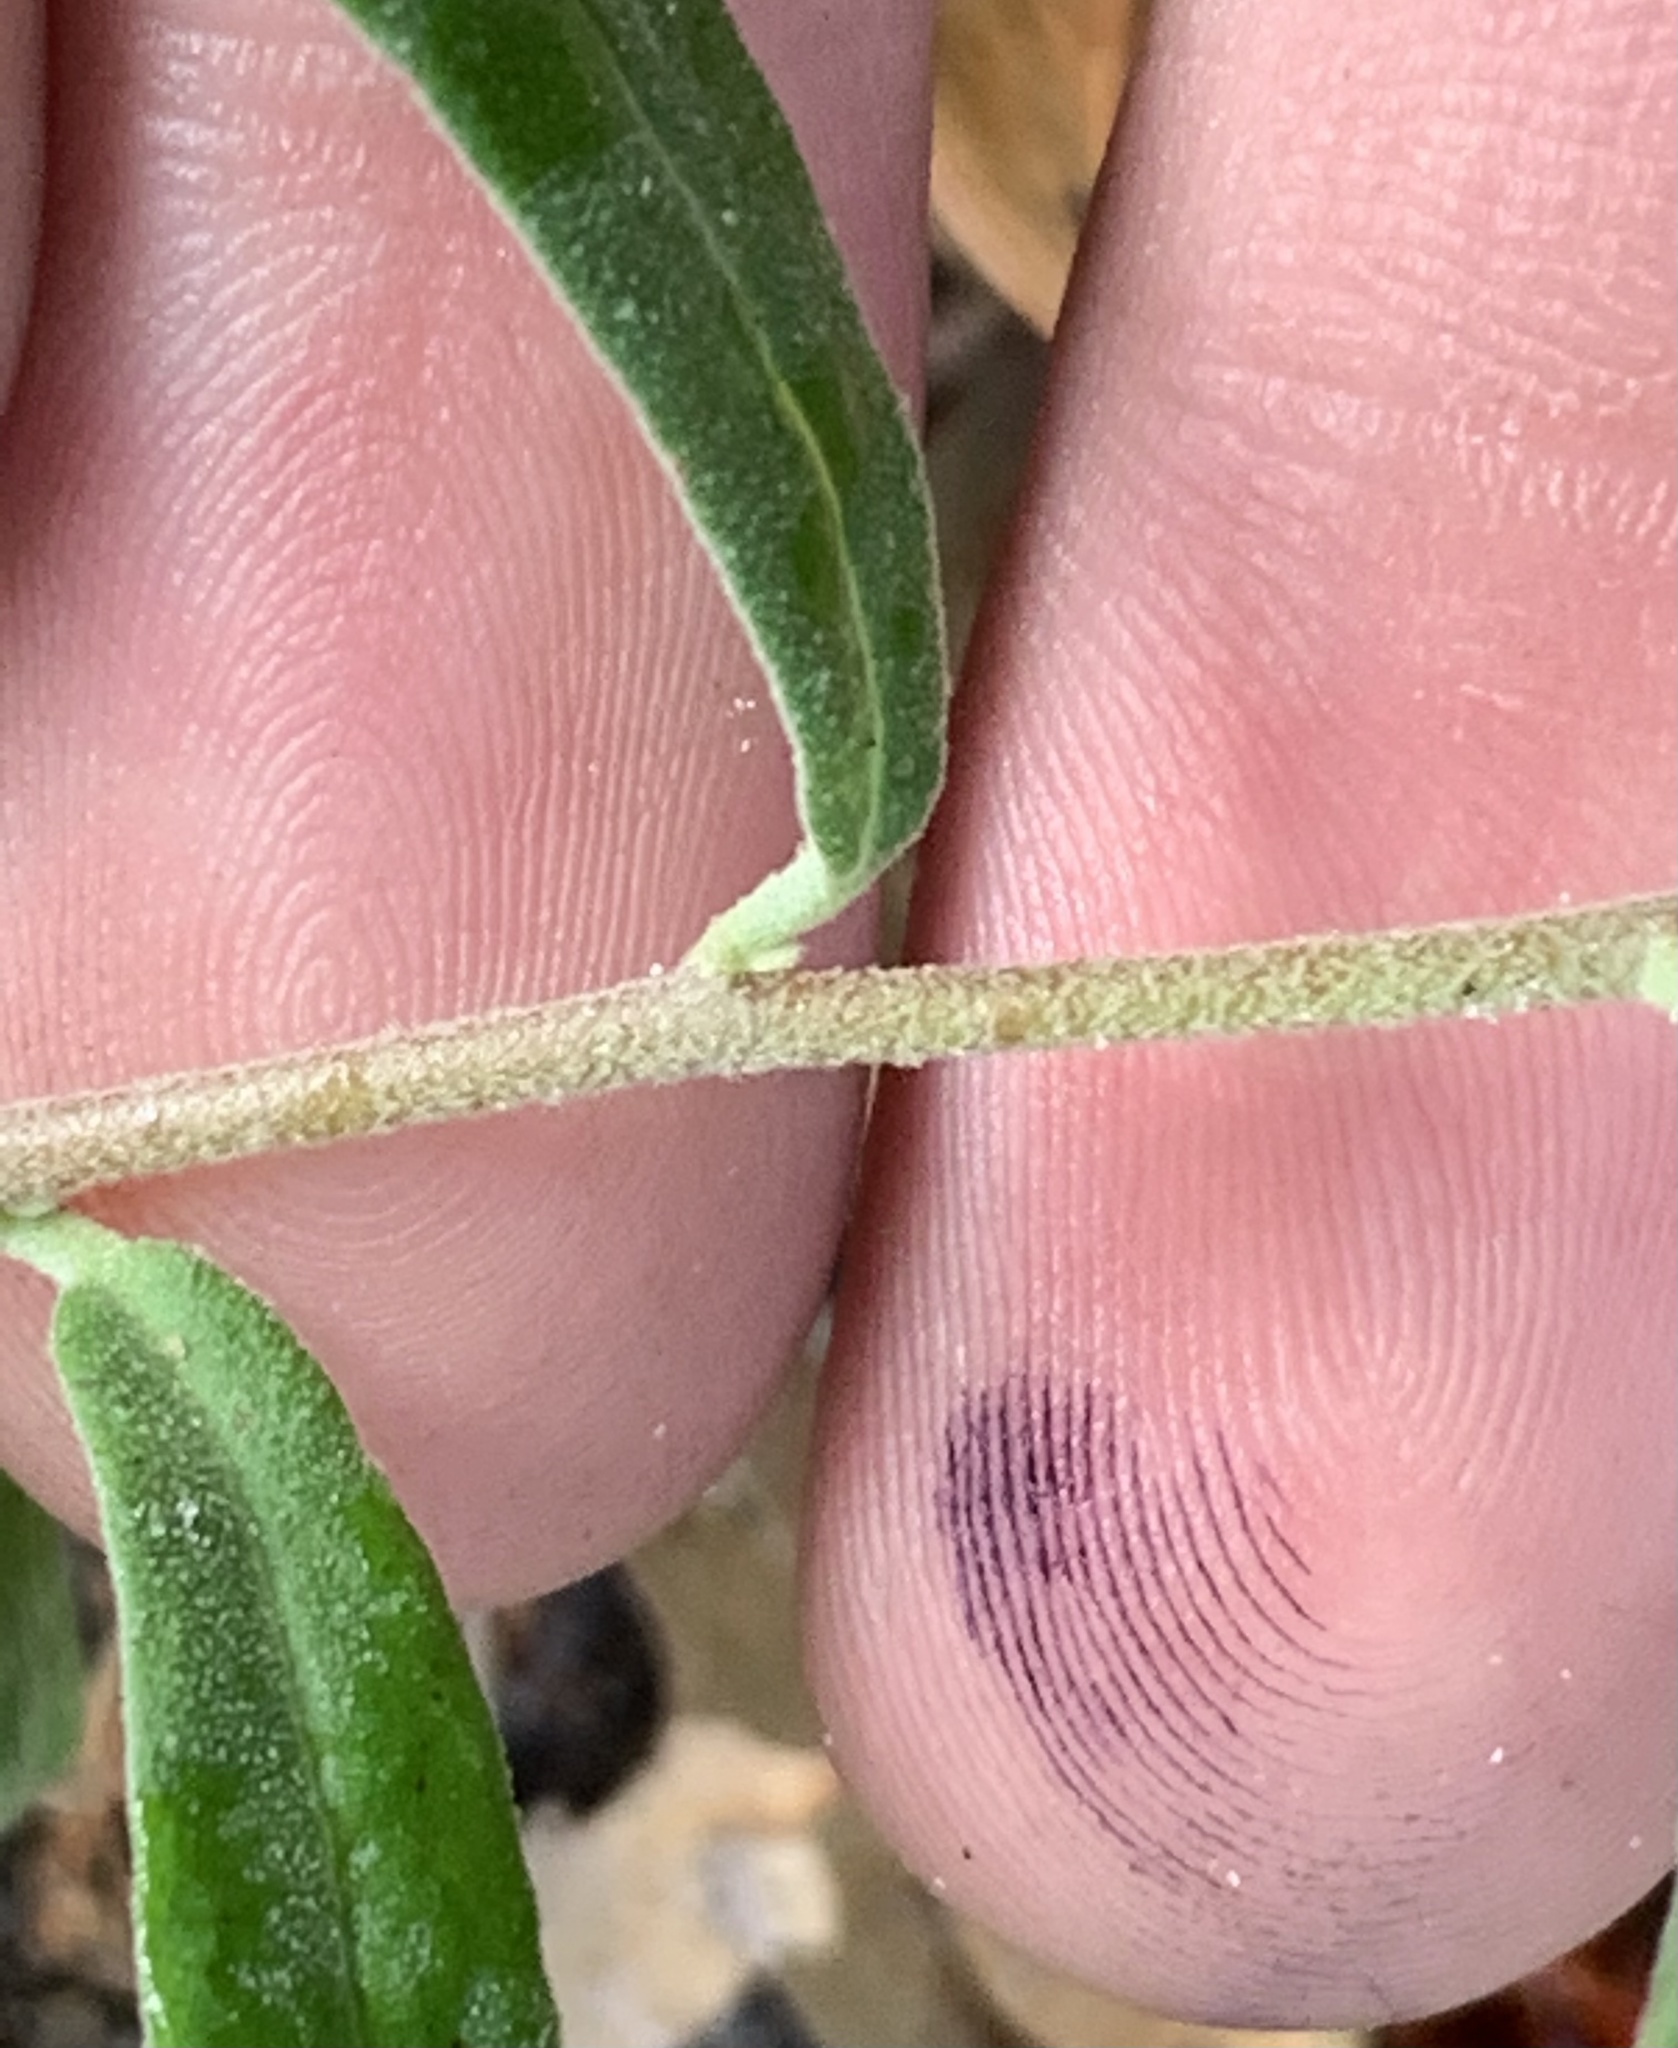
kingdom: Plantae
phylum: Tracheophyta
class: Magnoliopsida
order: Malvales
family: Cistaceae
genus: Crocanthemum
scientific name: Crocanthemum corymbosum
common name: Pinebarren sun-rose
